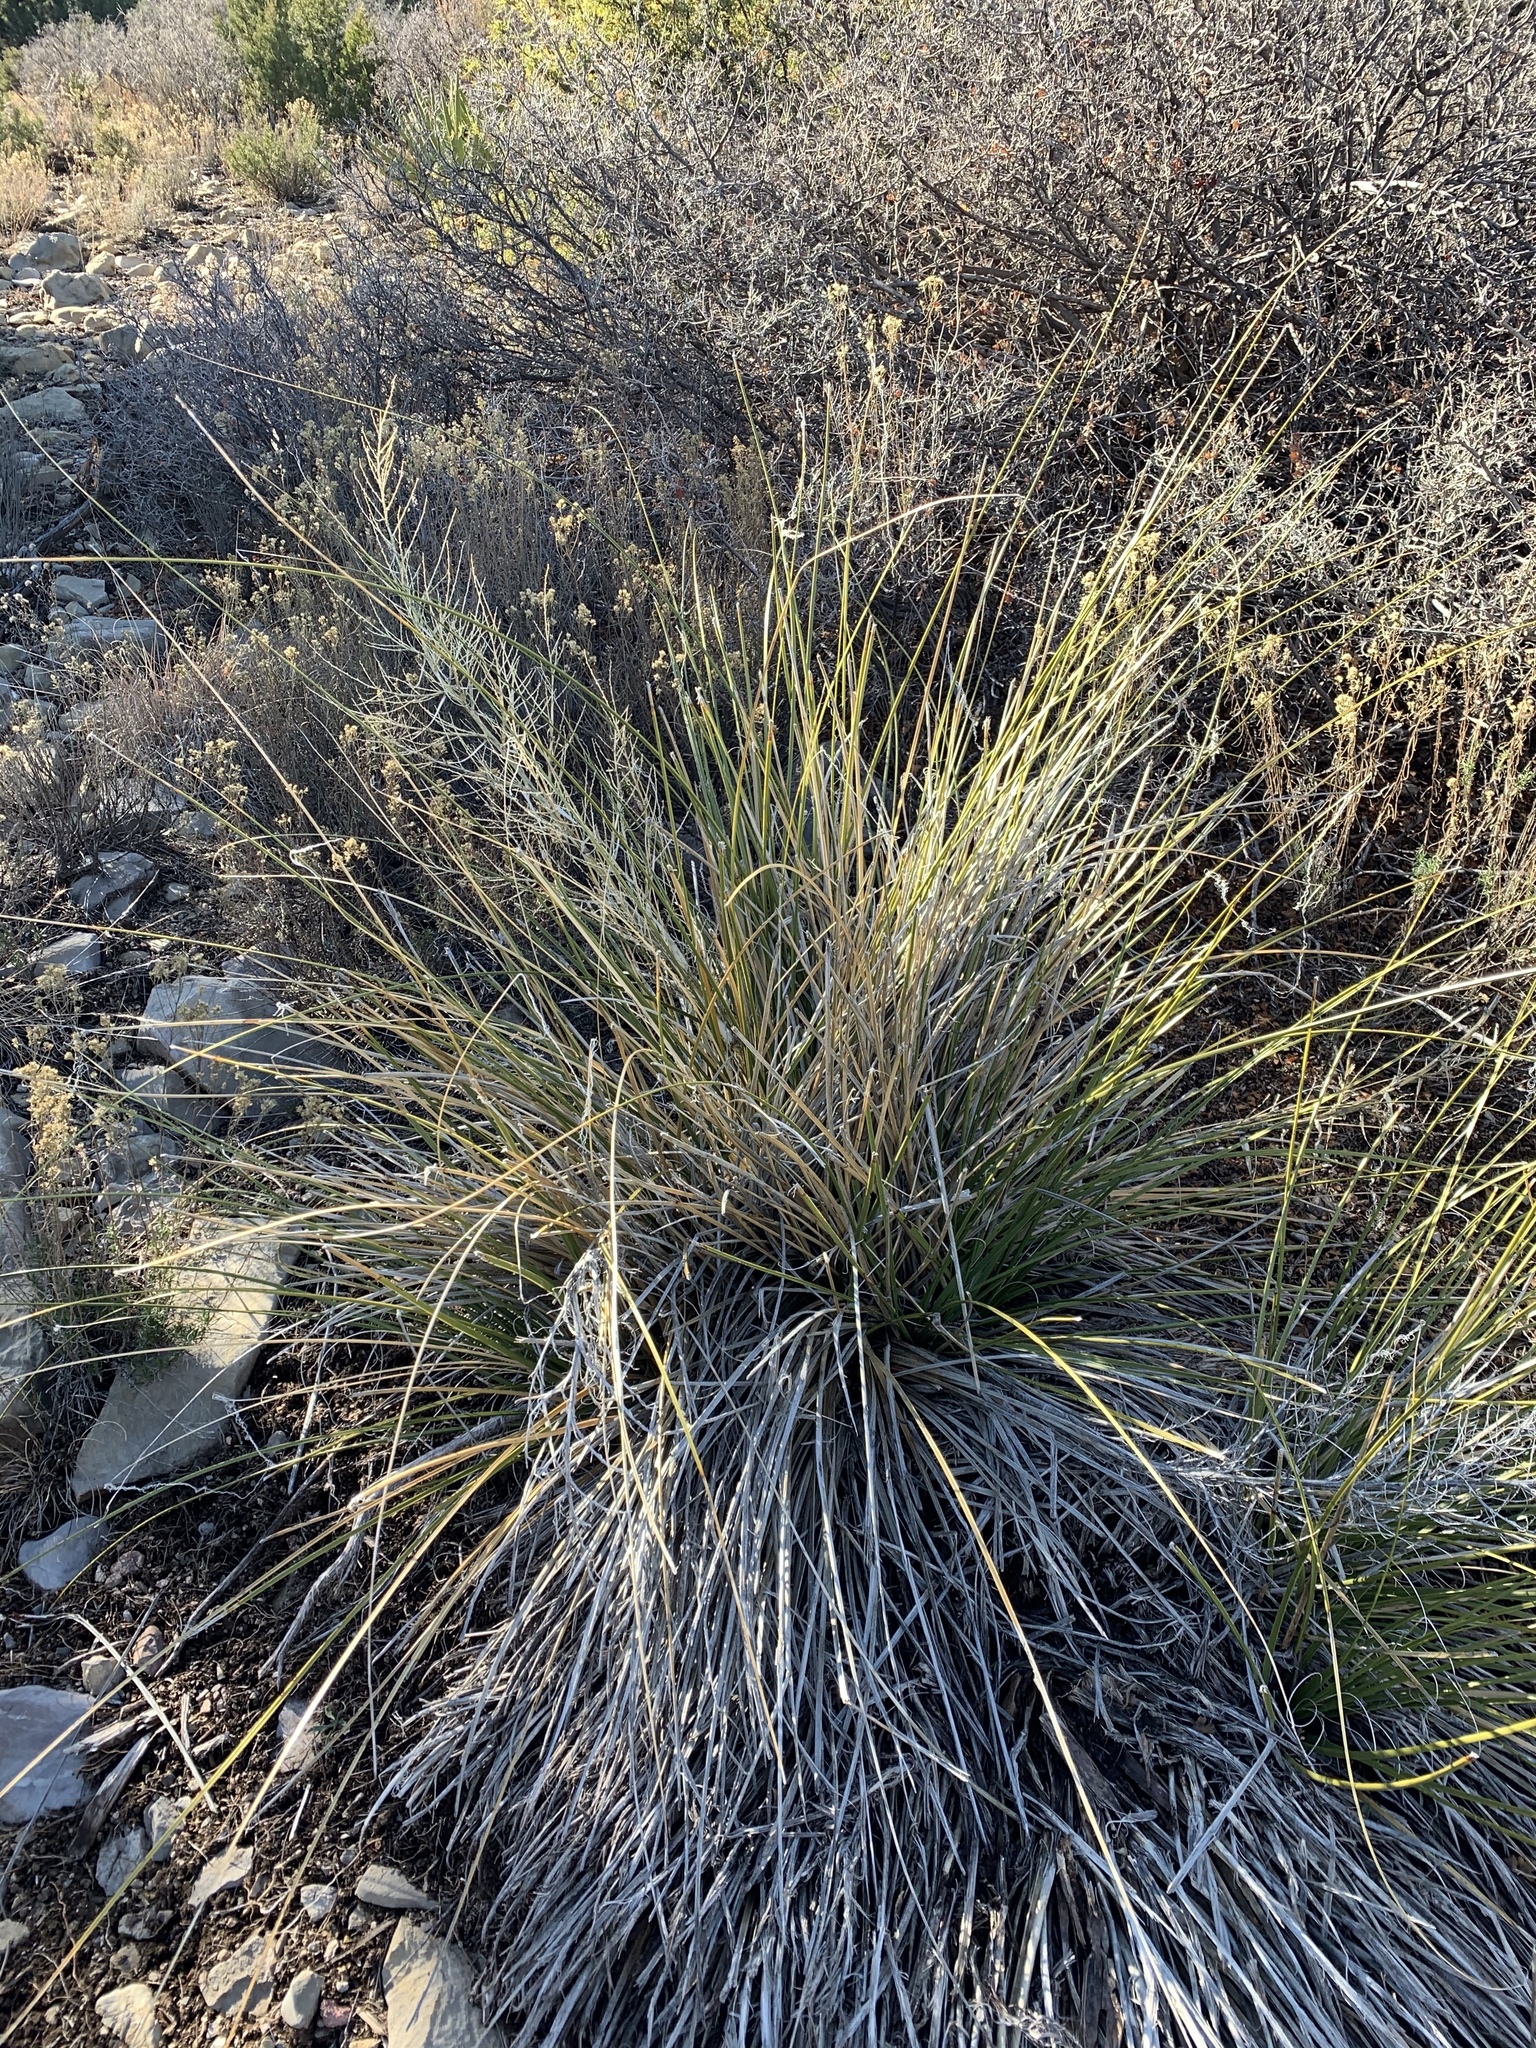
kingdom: Plantae
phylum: Tracheophyta
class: Liliopsida
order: Asparagales
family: Asparagaceae
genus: Nolina
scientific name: Nolina microcarpa
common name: Bear-grass
